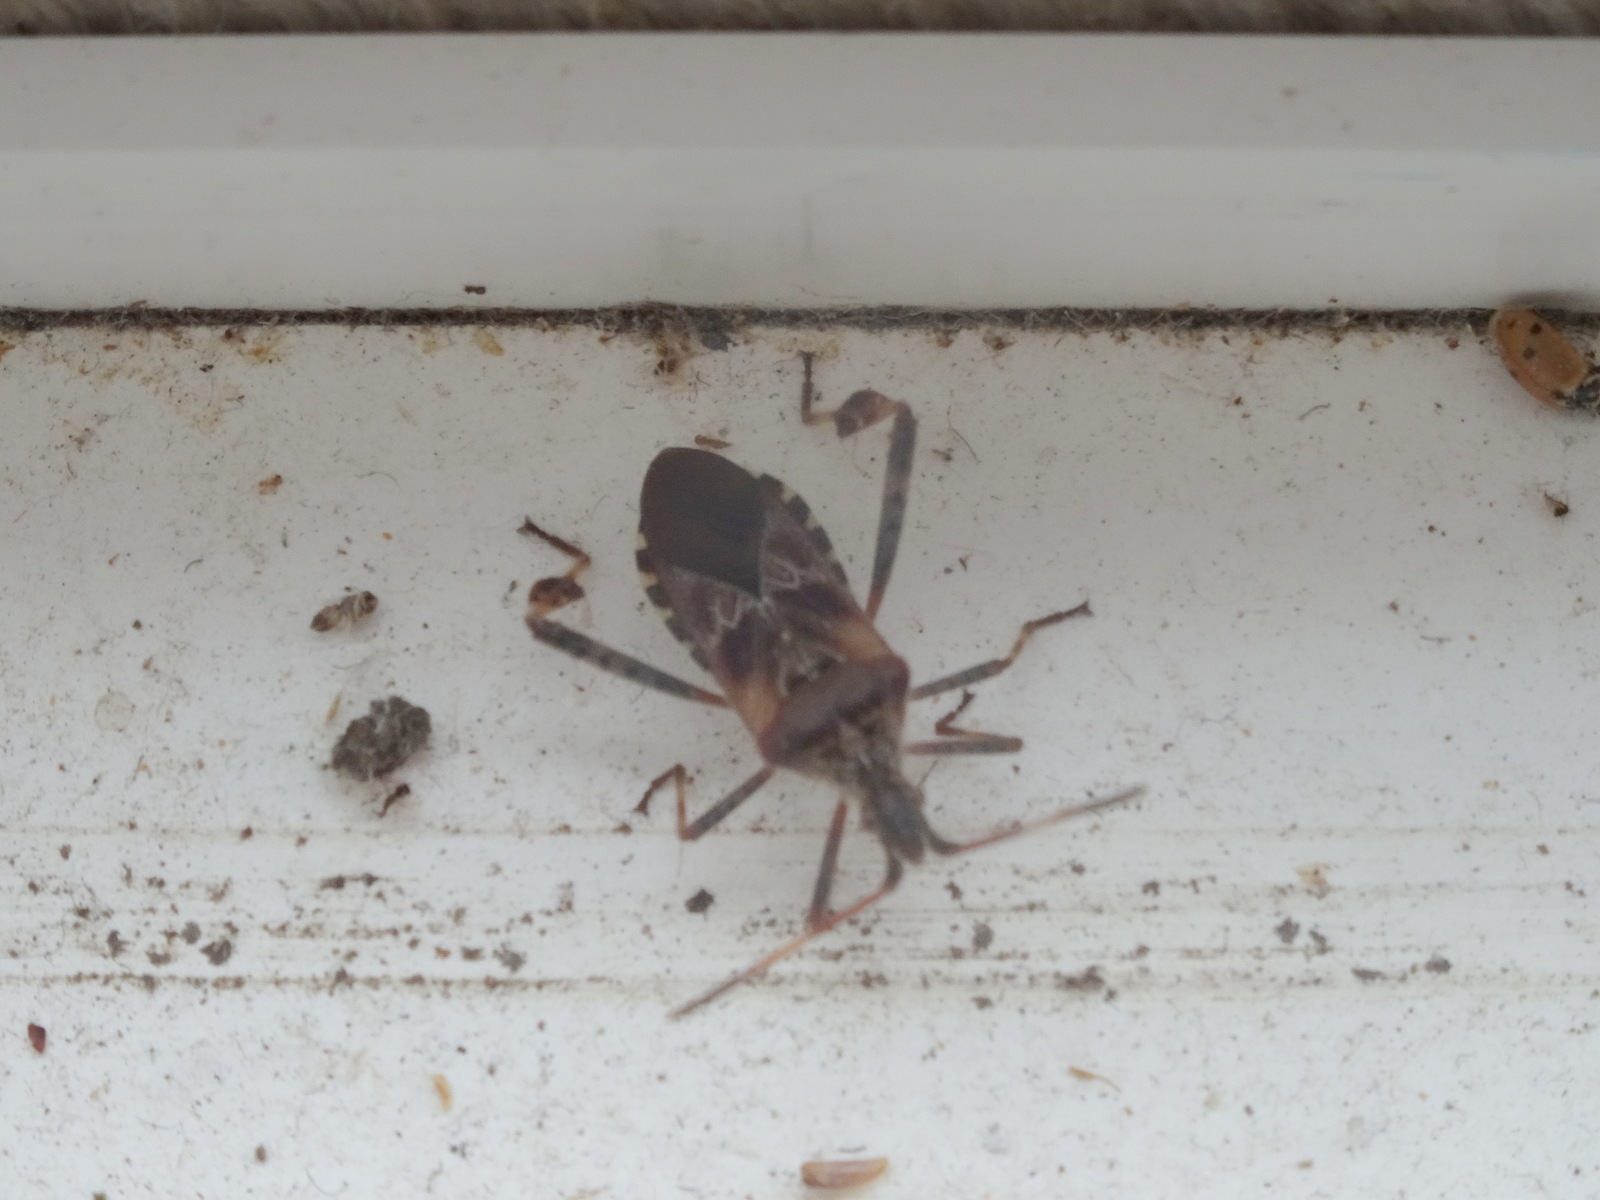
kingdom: Animalia
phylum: Arthropoda
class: Insecta
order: Hemiptera
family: Coreidae
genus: Leptoglossus
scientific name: Leptoglossus occidentalis
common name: Western conifer-seed bug
